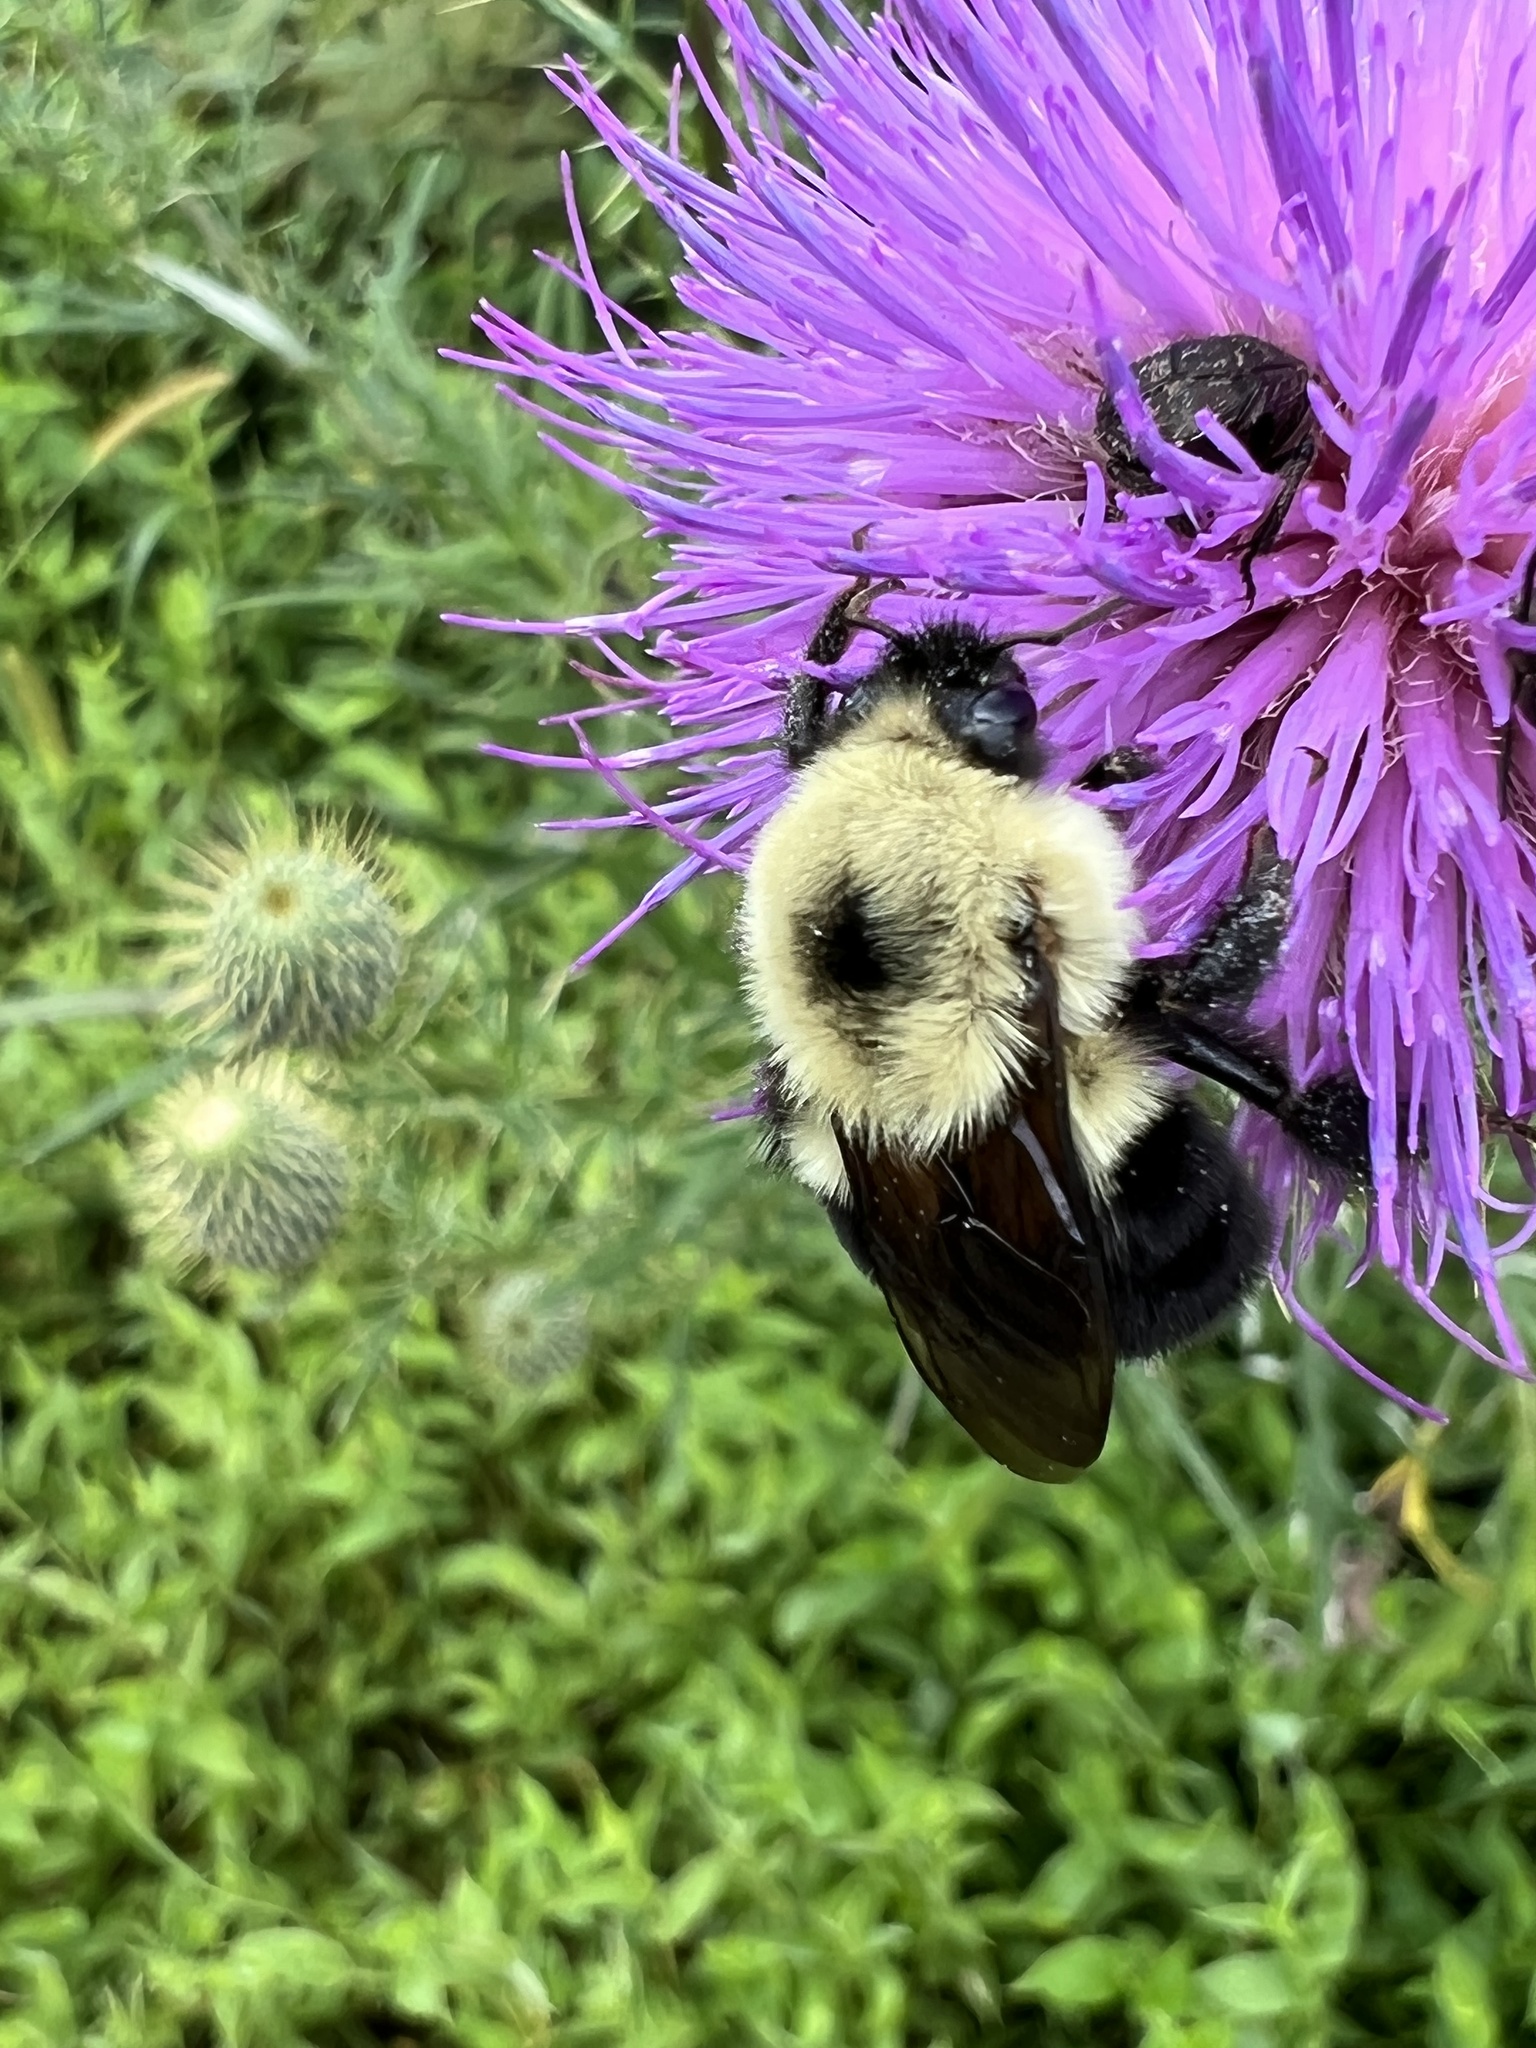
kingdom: Animalia
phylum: Arthropoda
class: Insecta
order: Hymenoptera
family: Apidae
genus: Bombus
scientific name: Bombus bimaculatus
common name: Two-spotted bumble bee
